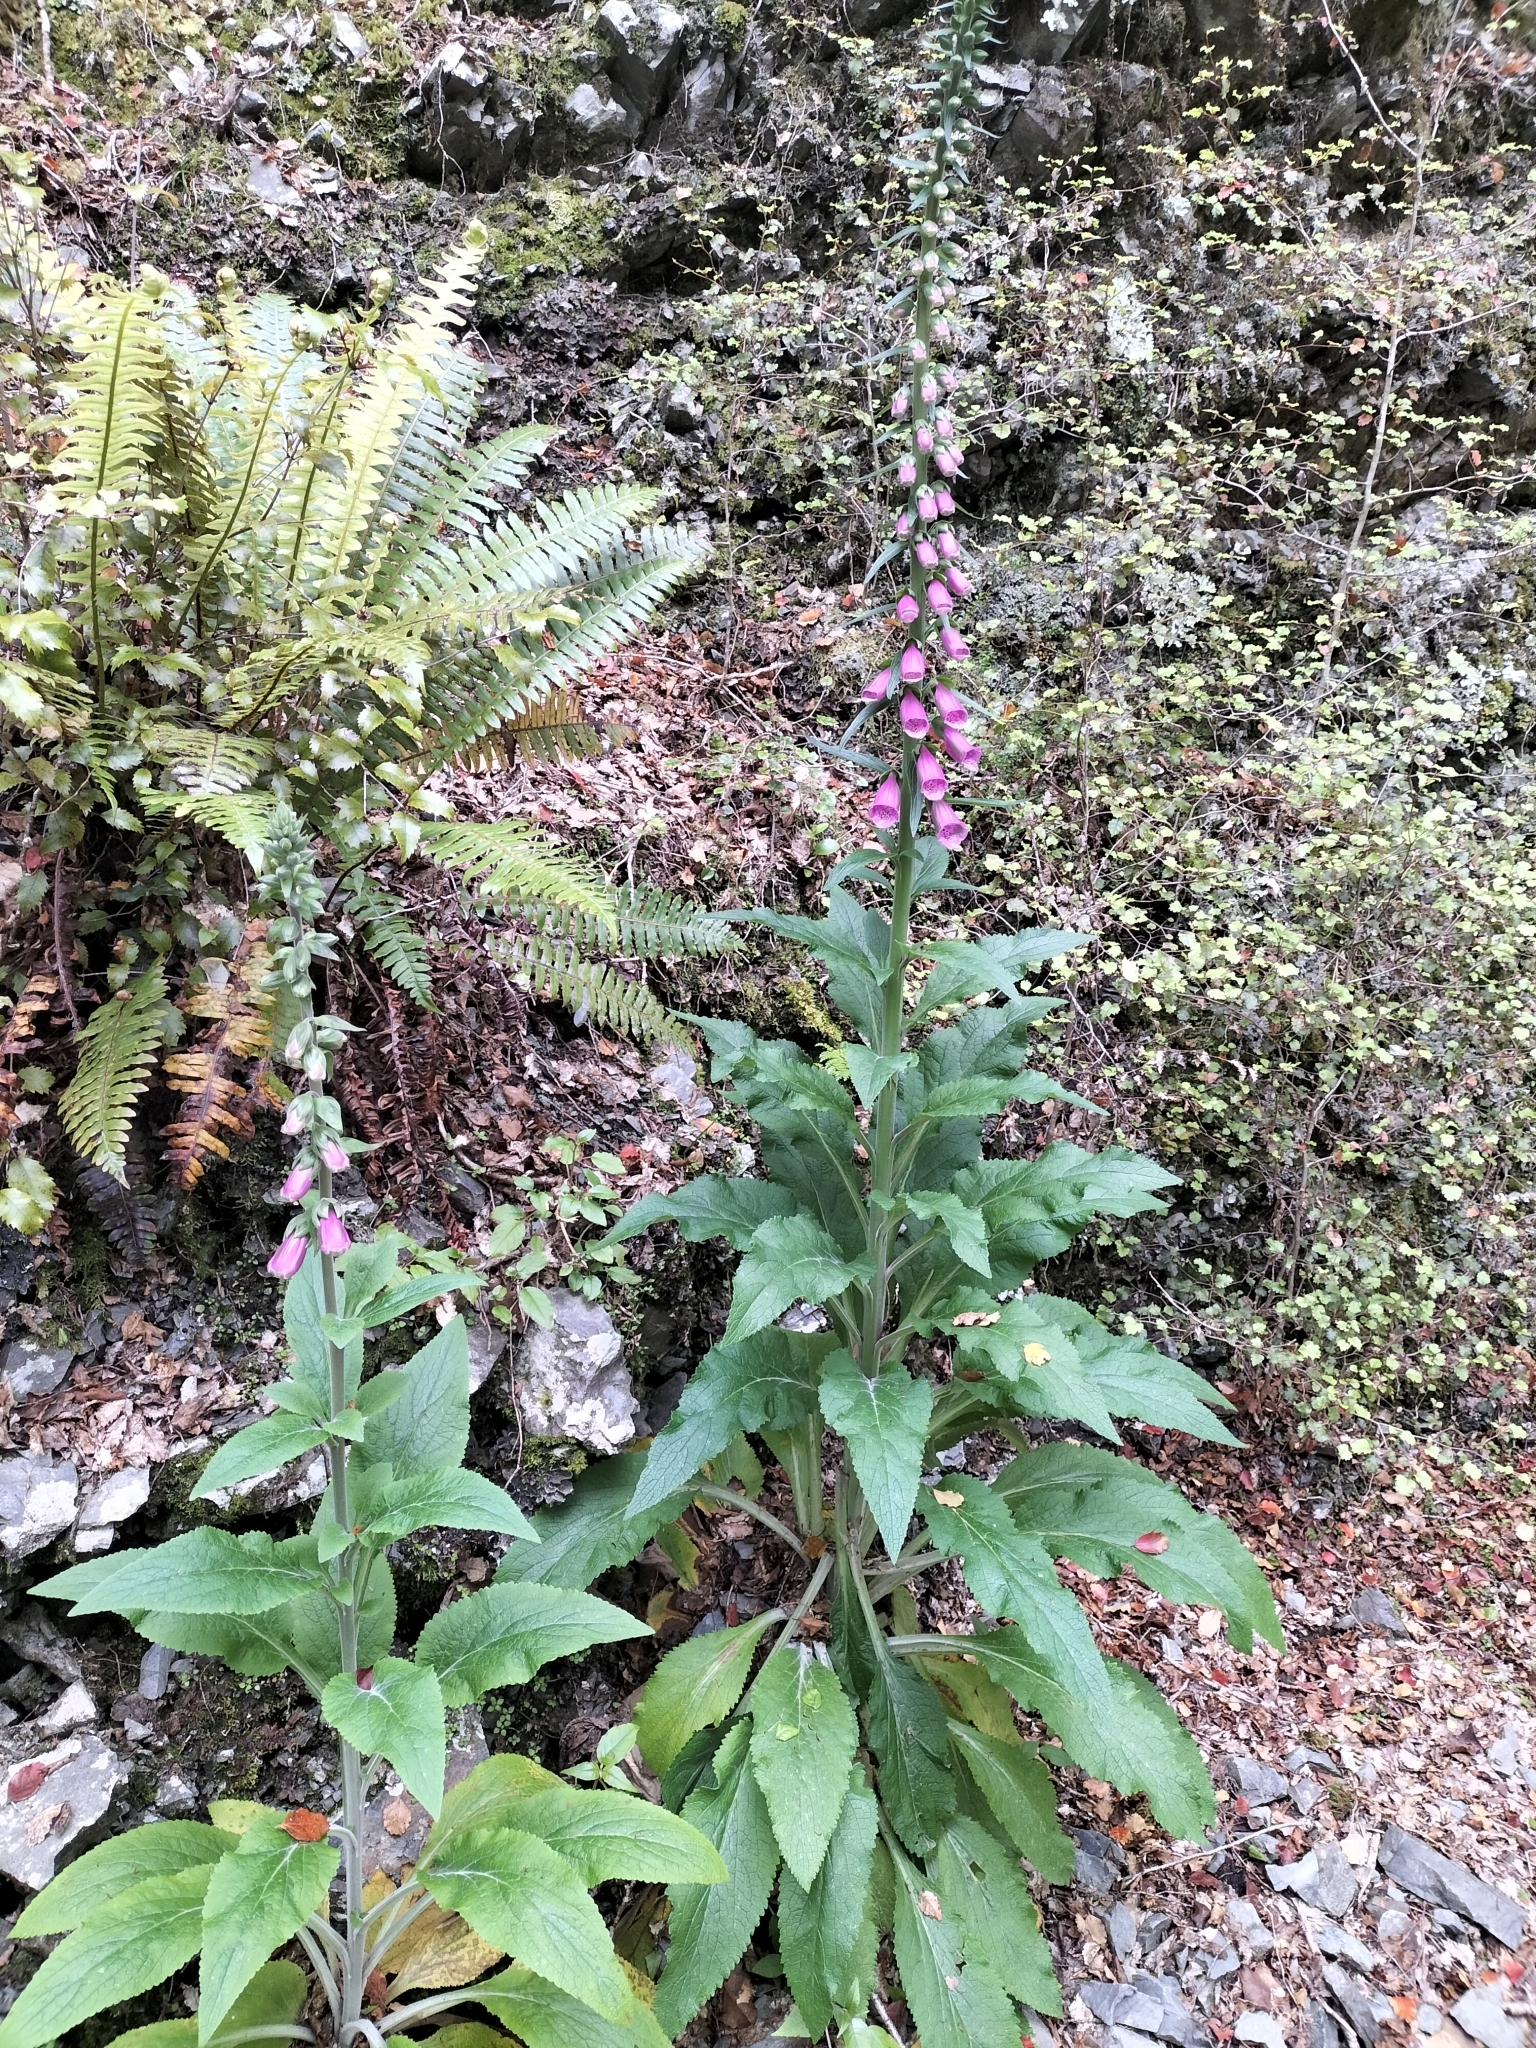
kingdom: Plantae
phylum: Tracheophyta
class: Magnoliopsida
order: Lamiales
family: Plantaginaceae
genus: Digitalis
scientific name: Digitalis purpurea
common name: Foxglove
